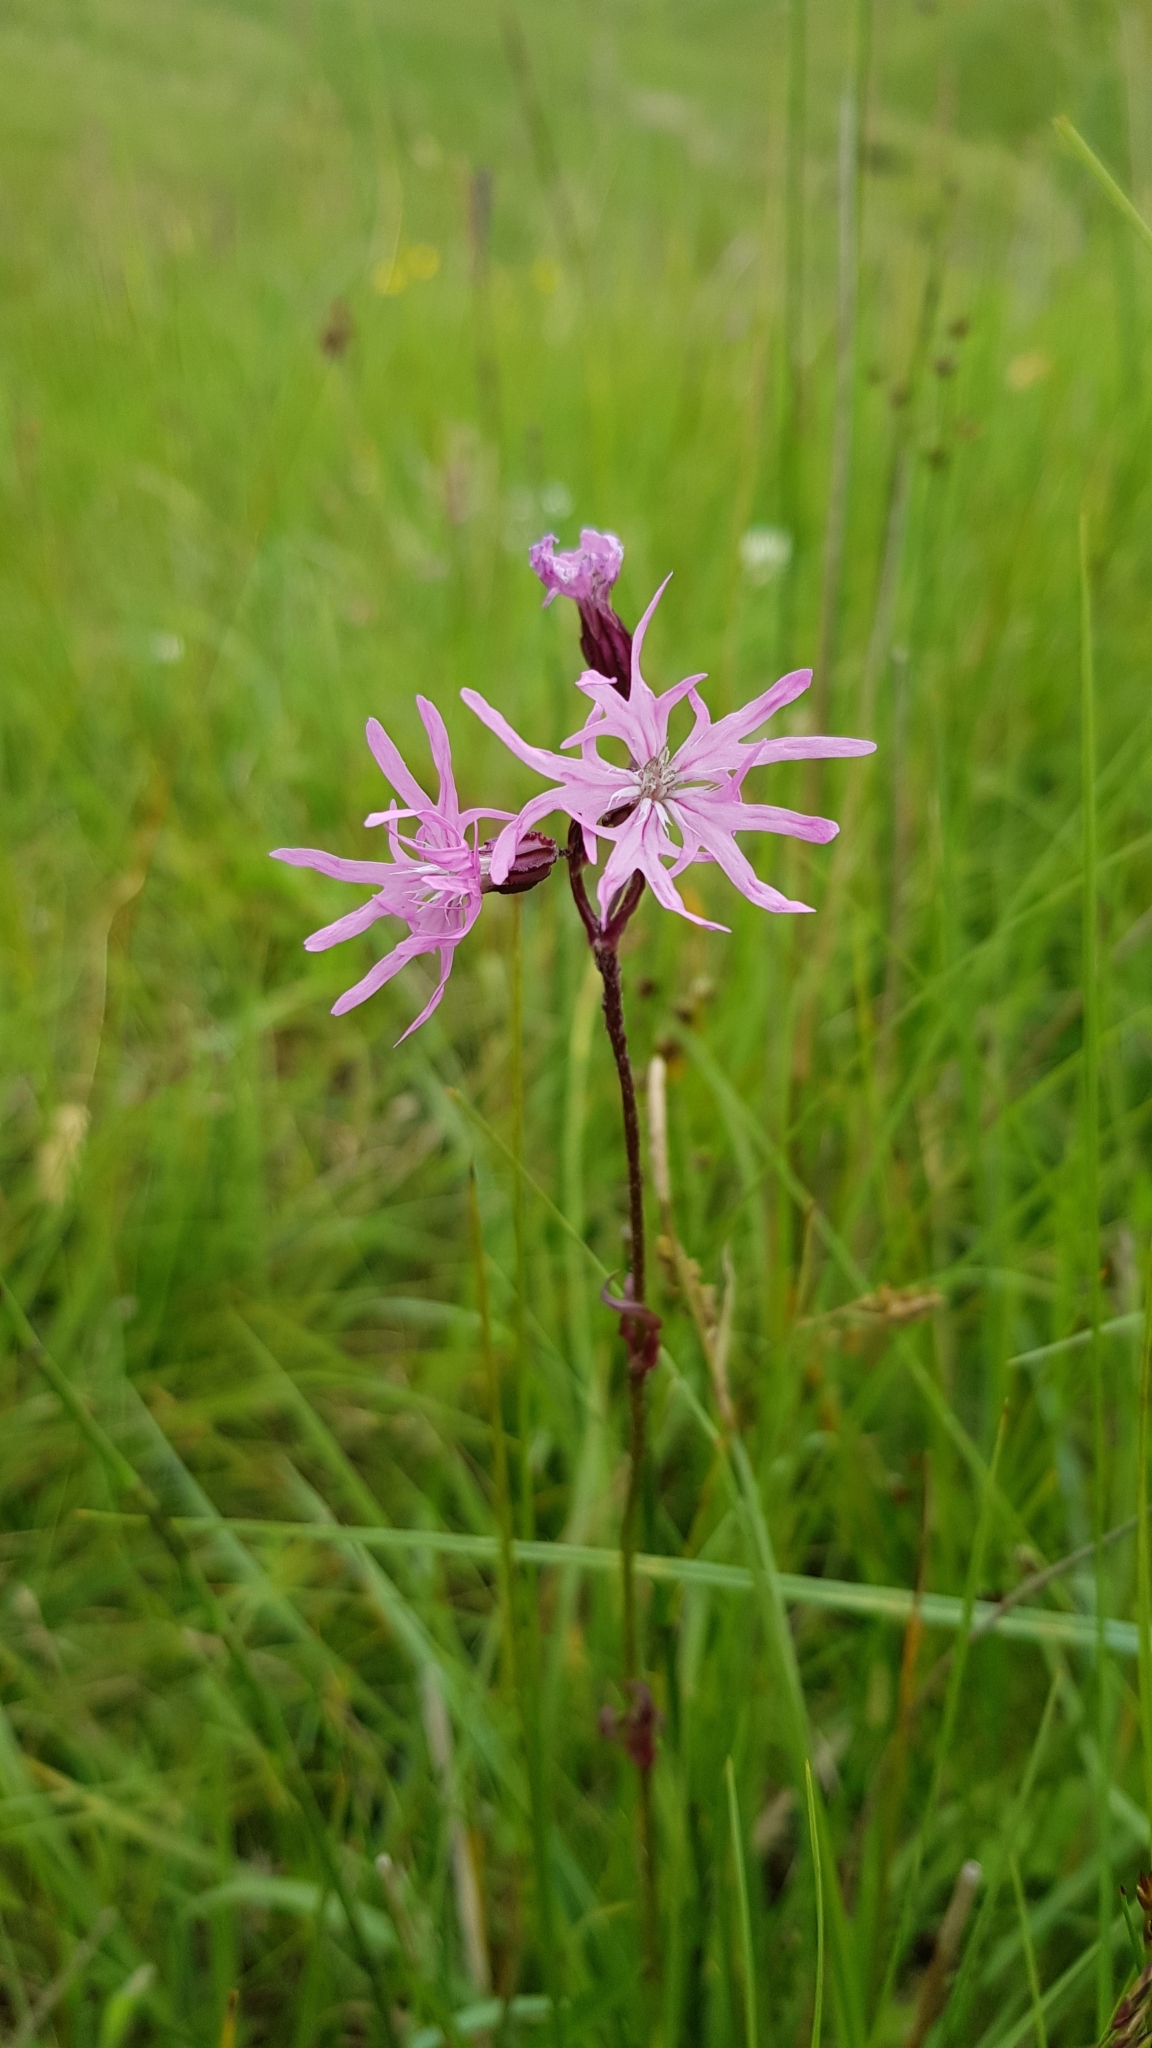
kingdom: Plantae
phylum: Tracheophyta
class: Magnoliopsida
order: Caryophyllales
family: Caryophyllaceae
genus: Silene
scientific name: Silene flos-cuculi
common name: Ragged-robin
